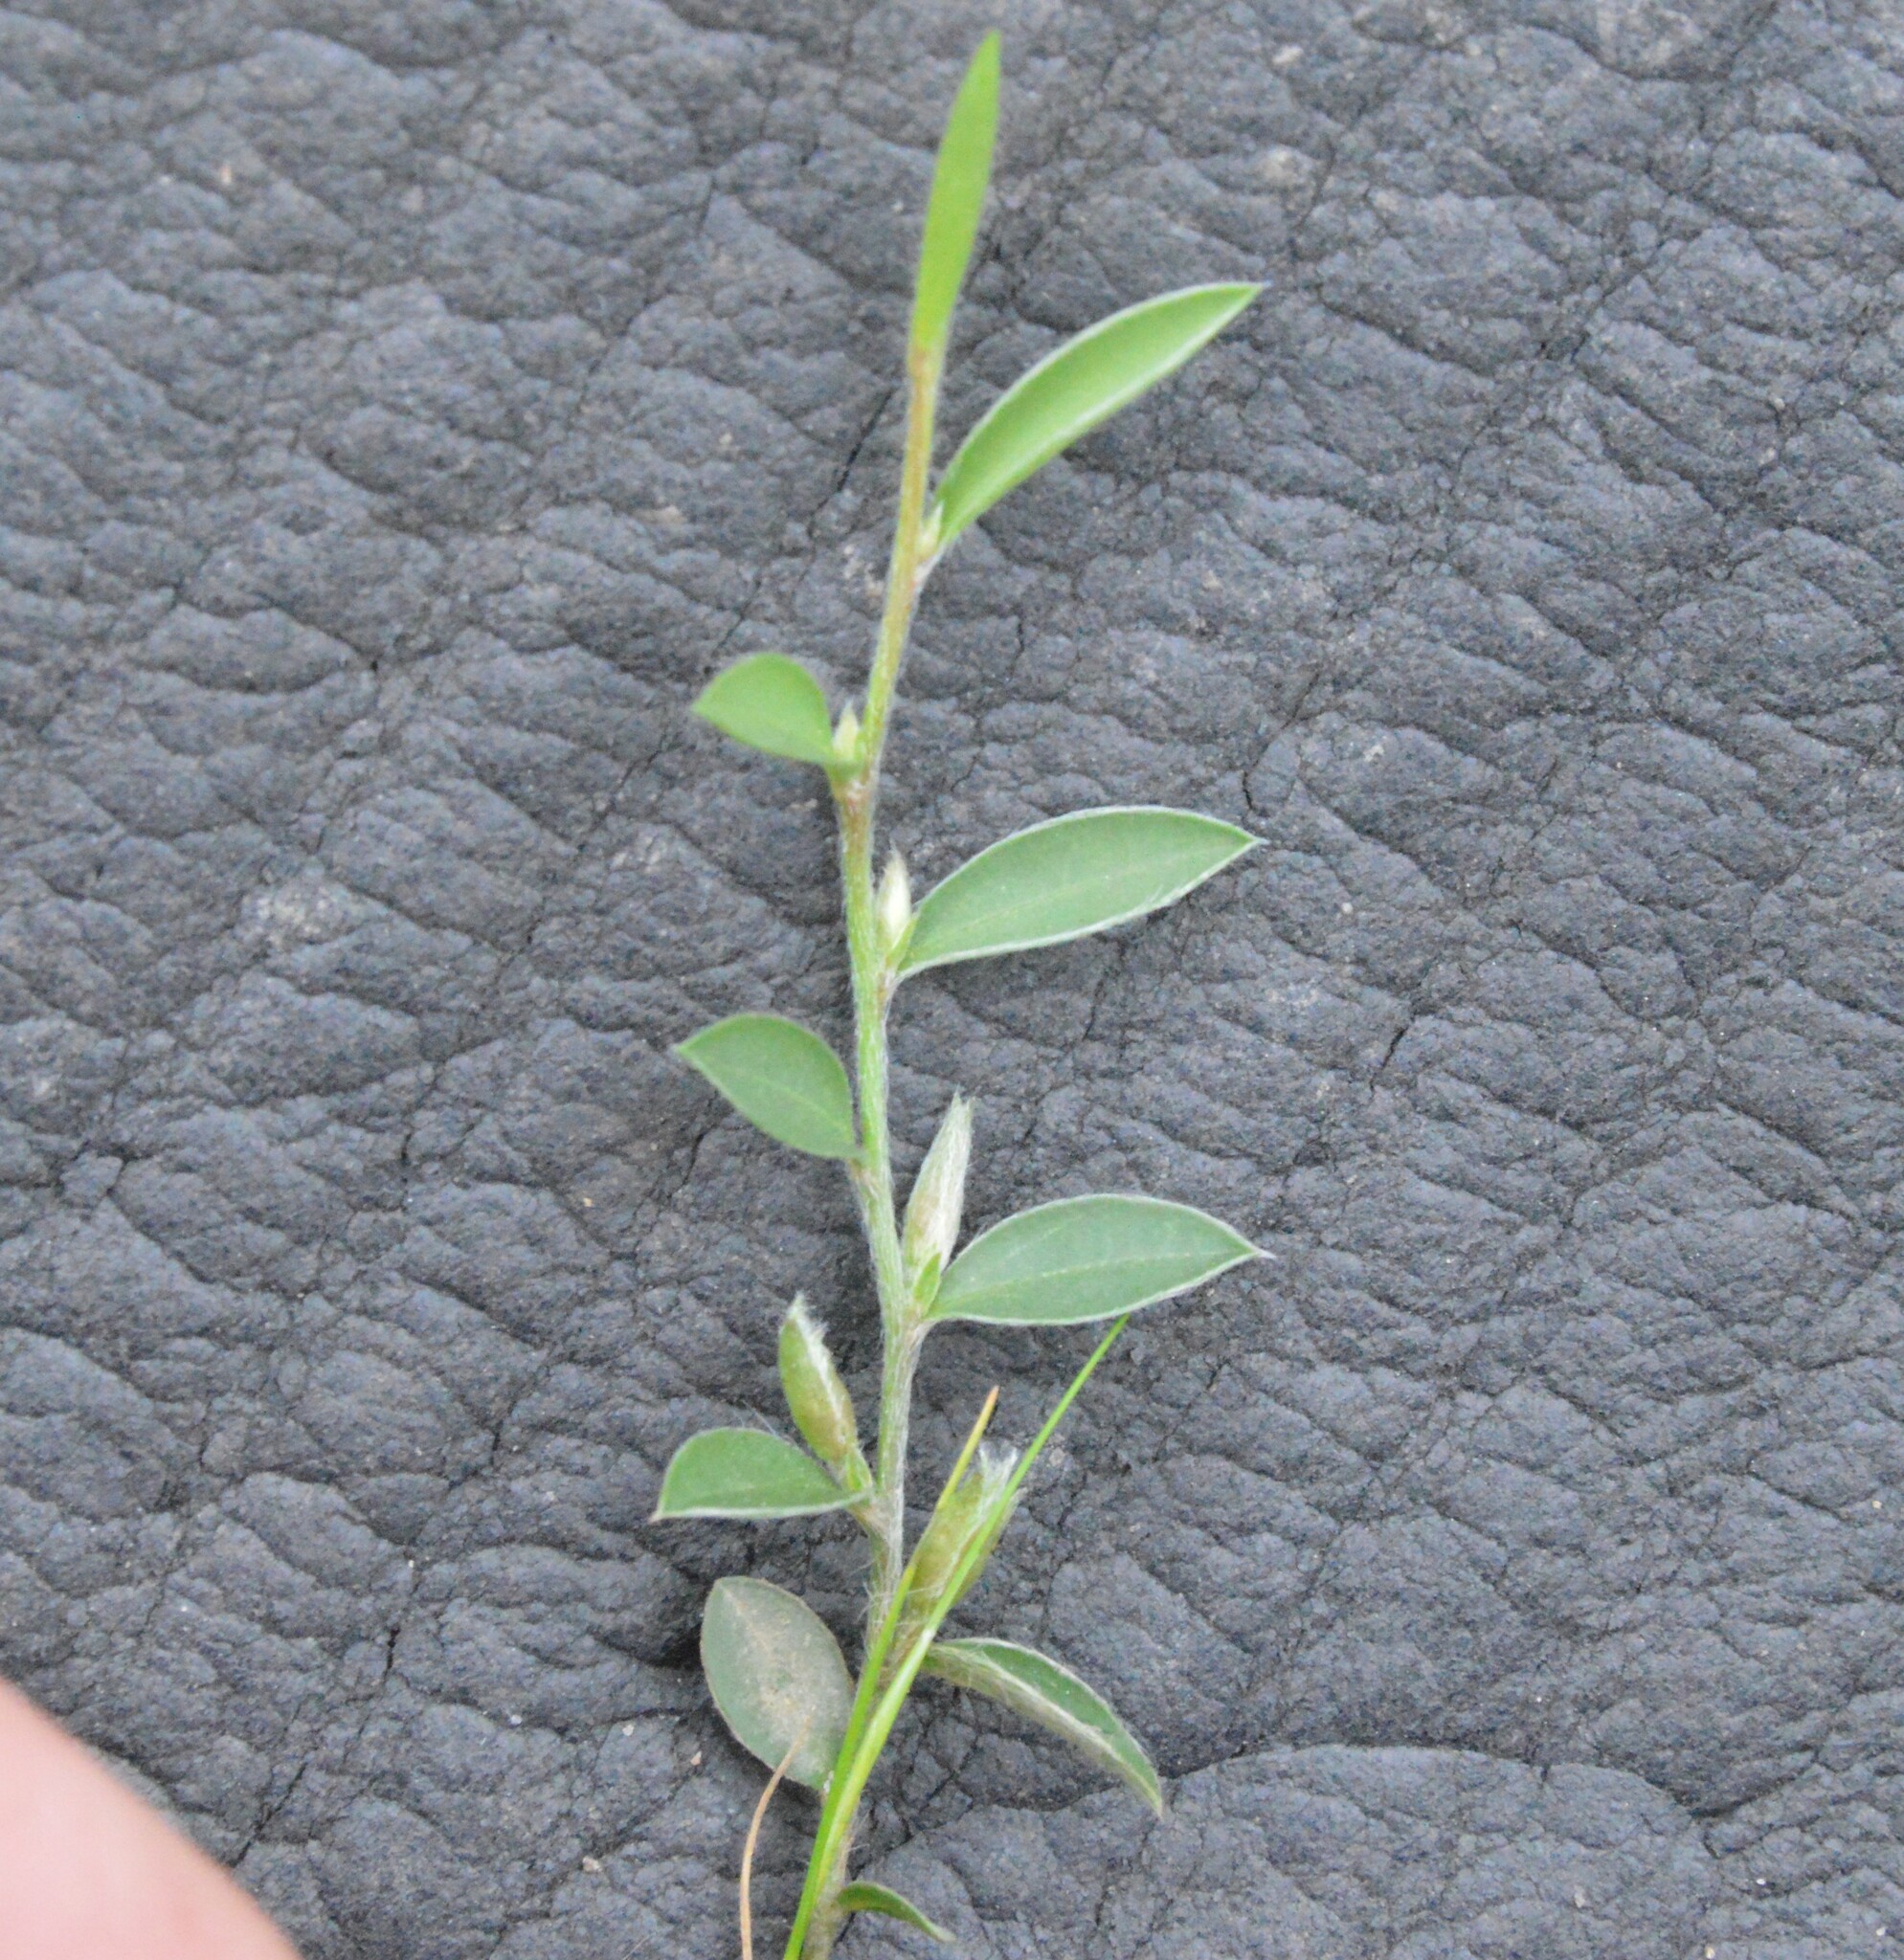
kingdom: Plantae
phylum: Tracheophyta
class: Magnoliopsida
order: Solanales
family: Convolvulaceae
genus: Evolvulus
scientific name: Evolvulus sericeus
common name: Blue dots
